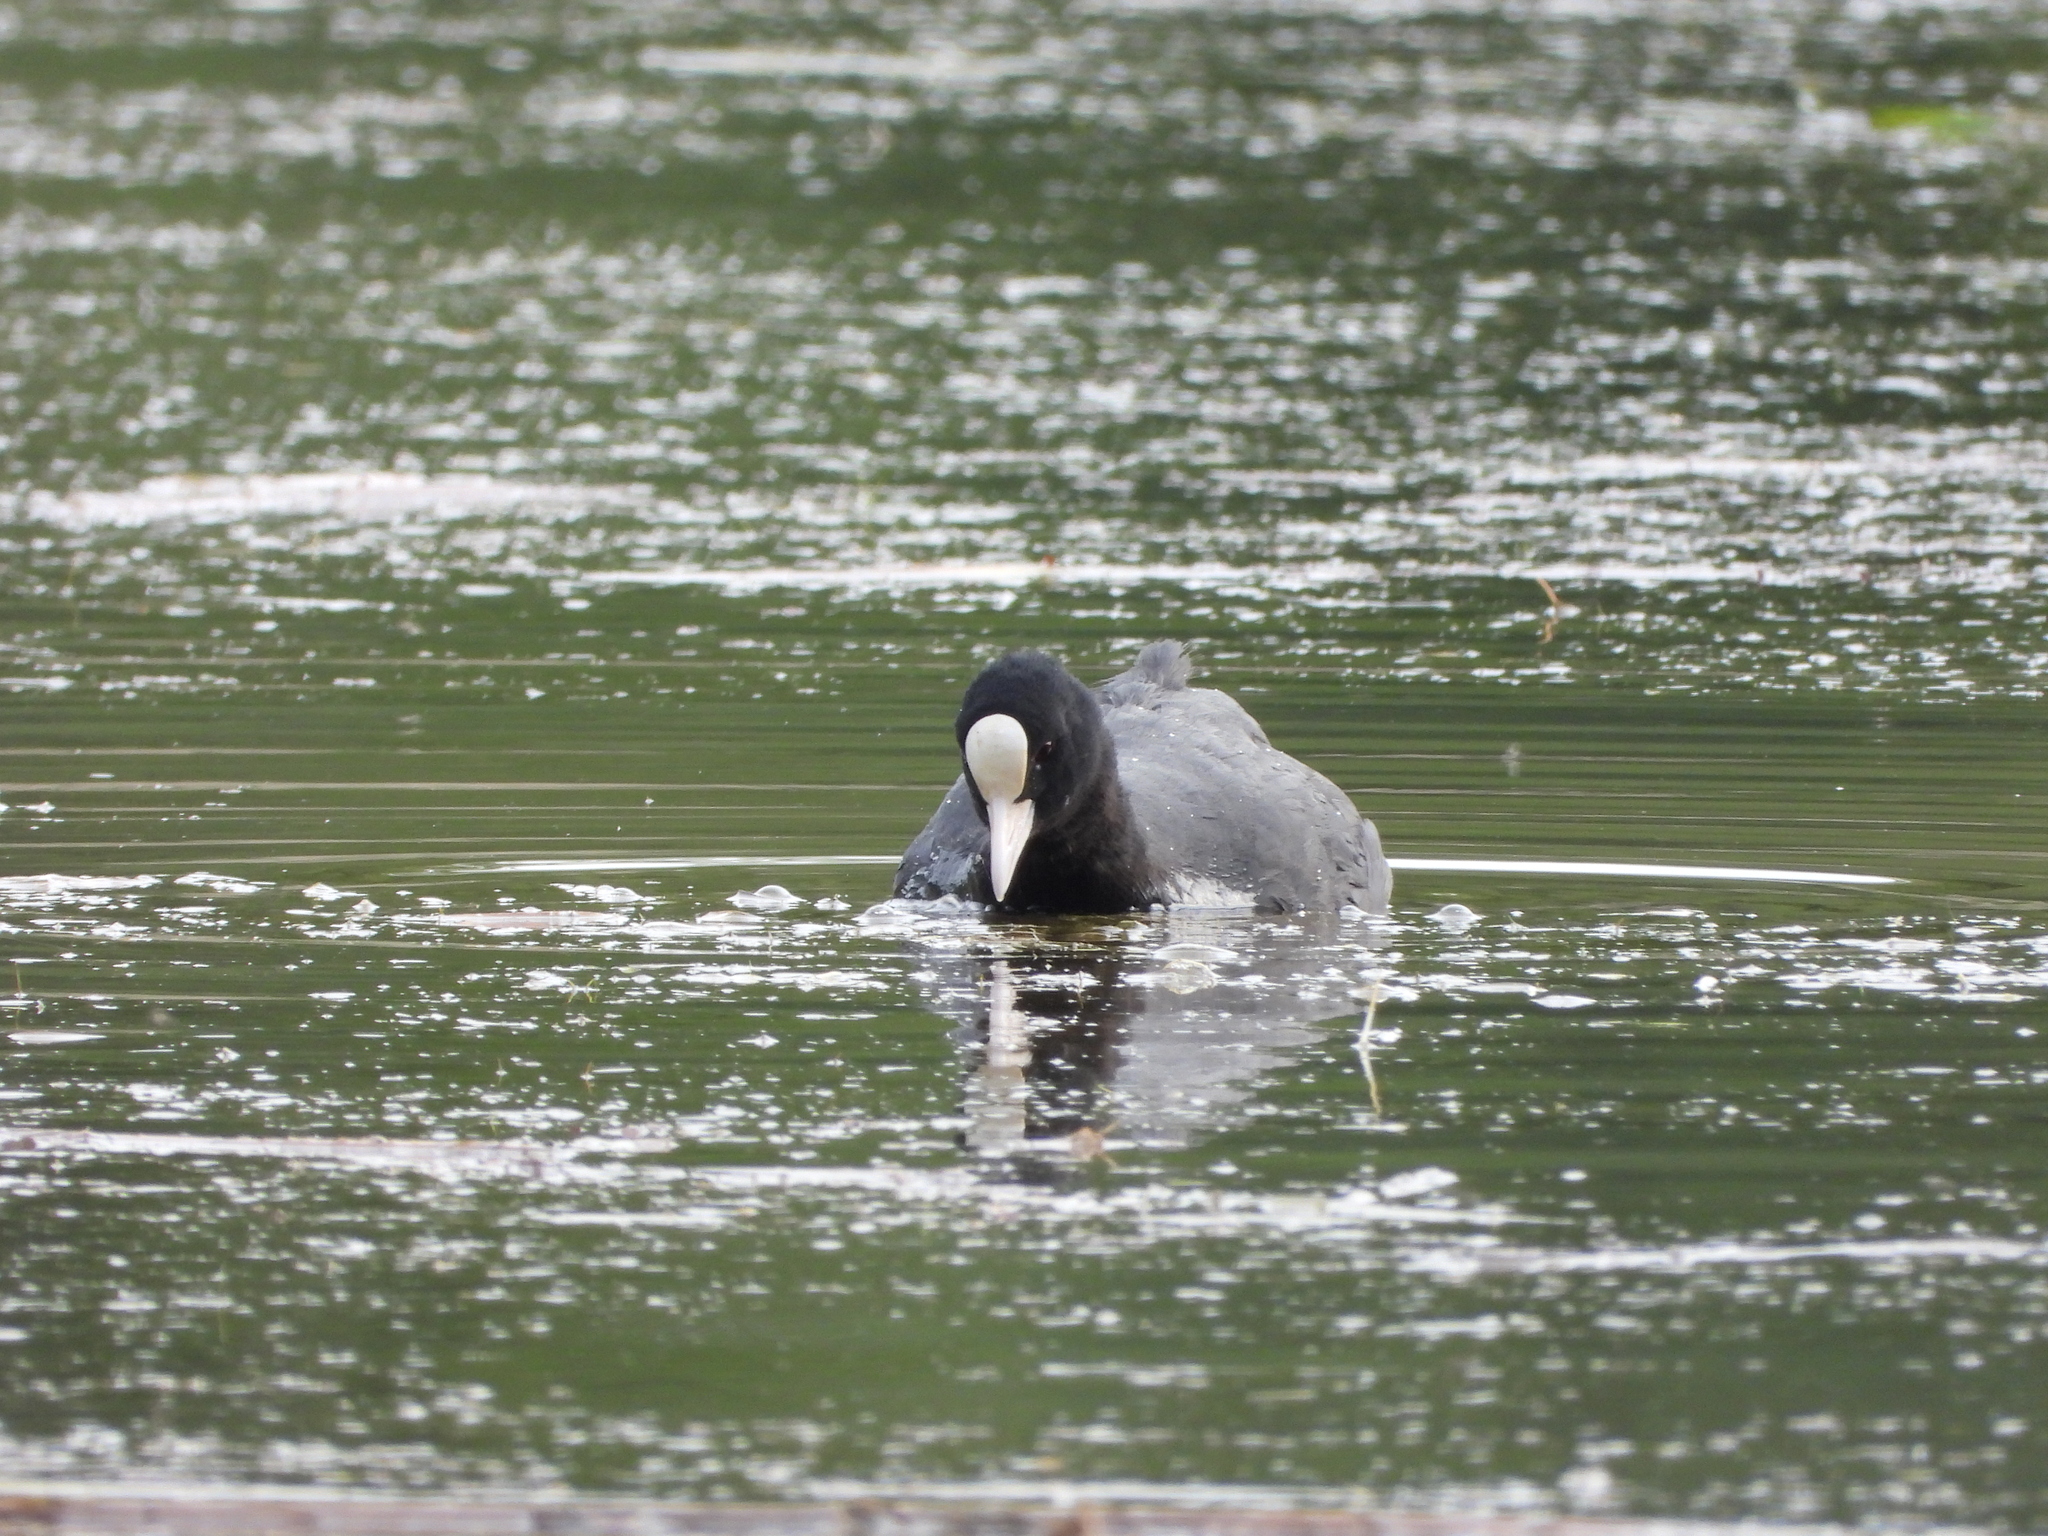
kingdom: Animalia
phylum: Chordata
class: Aves
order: Gruiformes
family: Rallidae
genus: Fulica
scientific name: Fulica atra
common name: Eurasian coot
